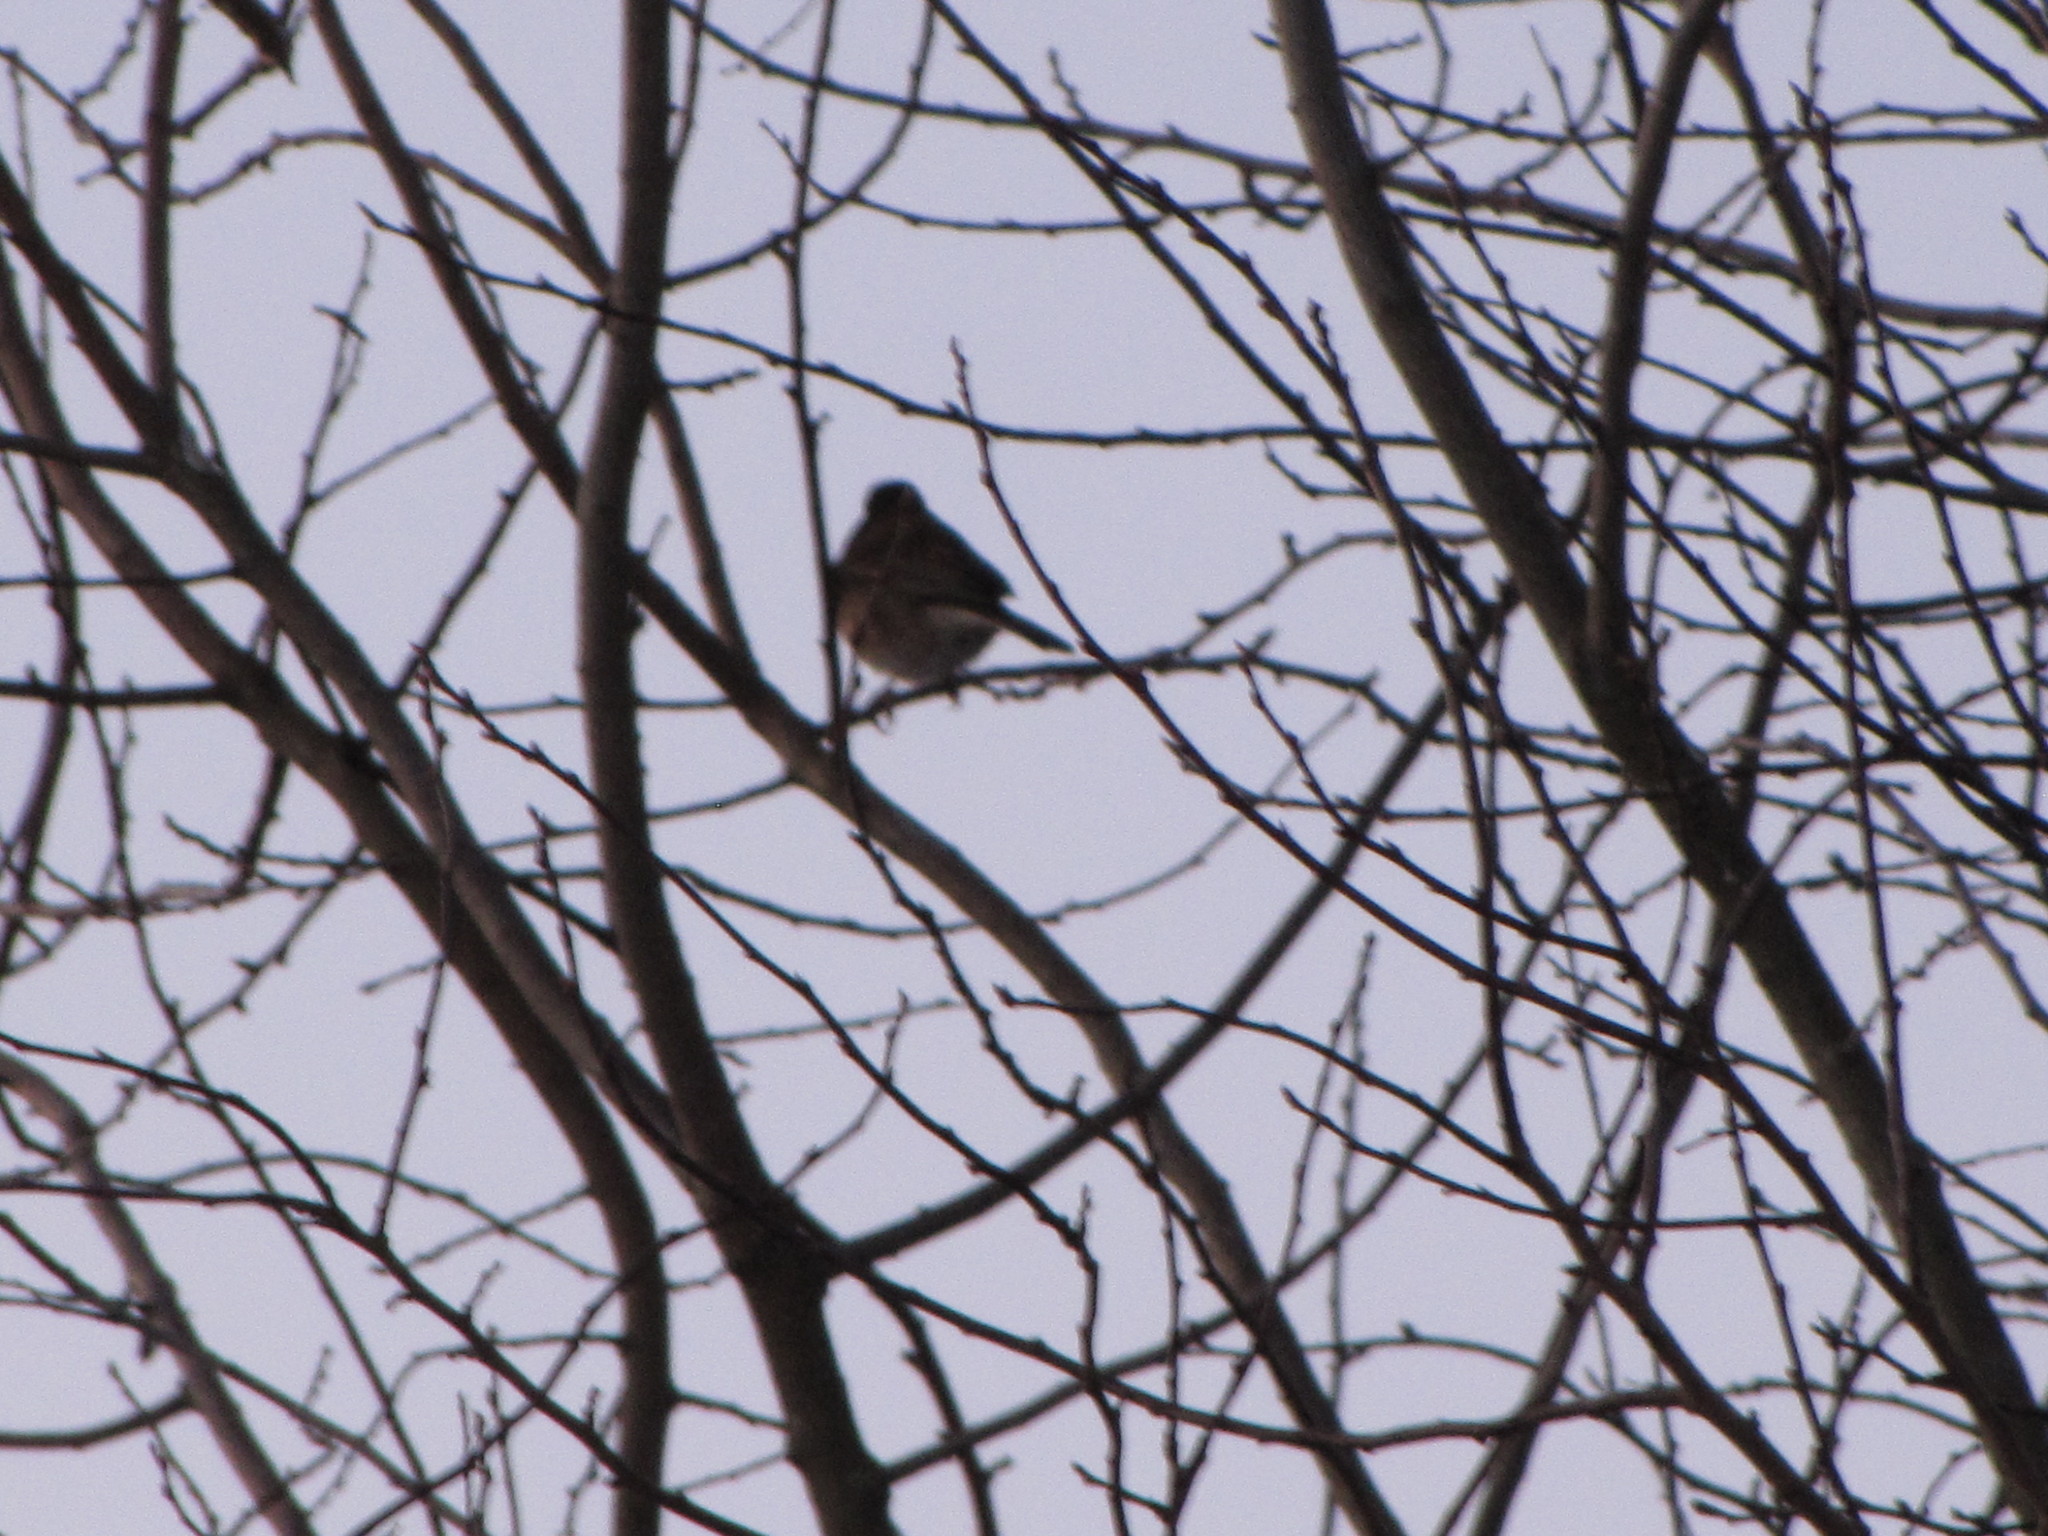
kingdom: Animalia
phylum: Chordata
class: Aves
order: Passeriformes
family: Passerellidae
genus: Junco
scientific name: Junco hyemalis
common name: Dark-eyed junco
